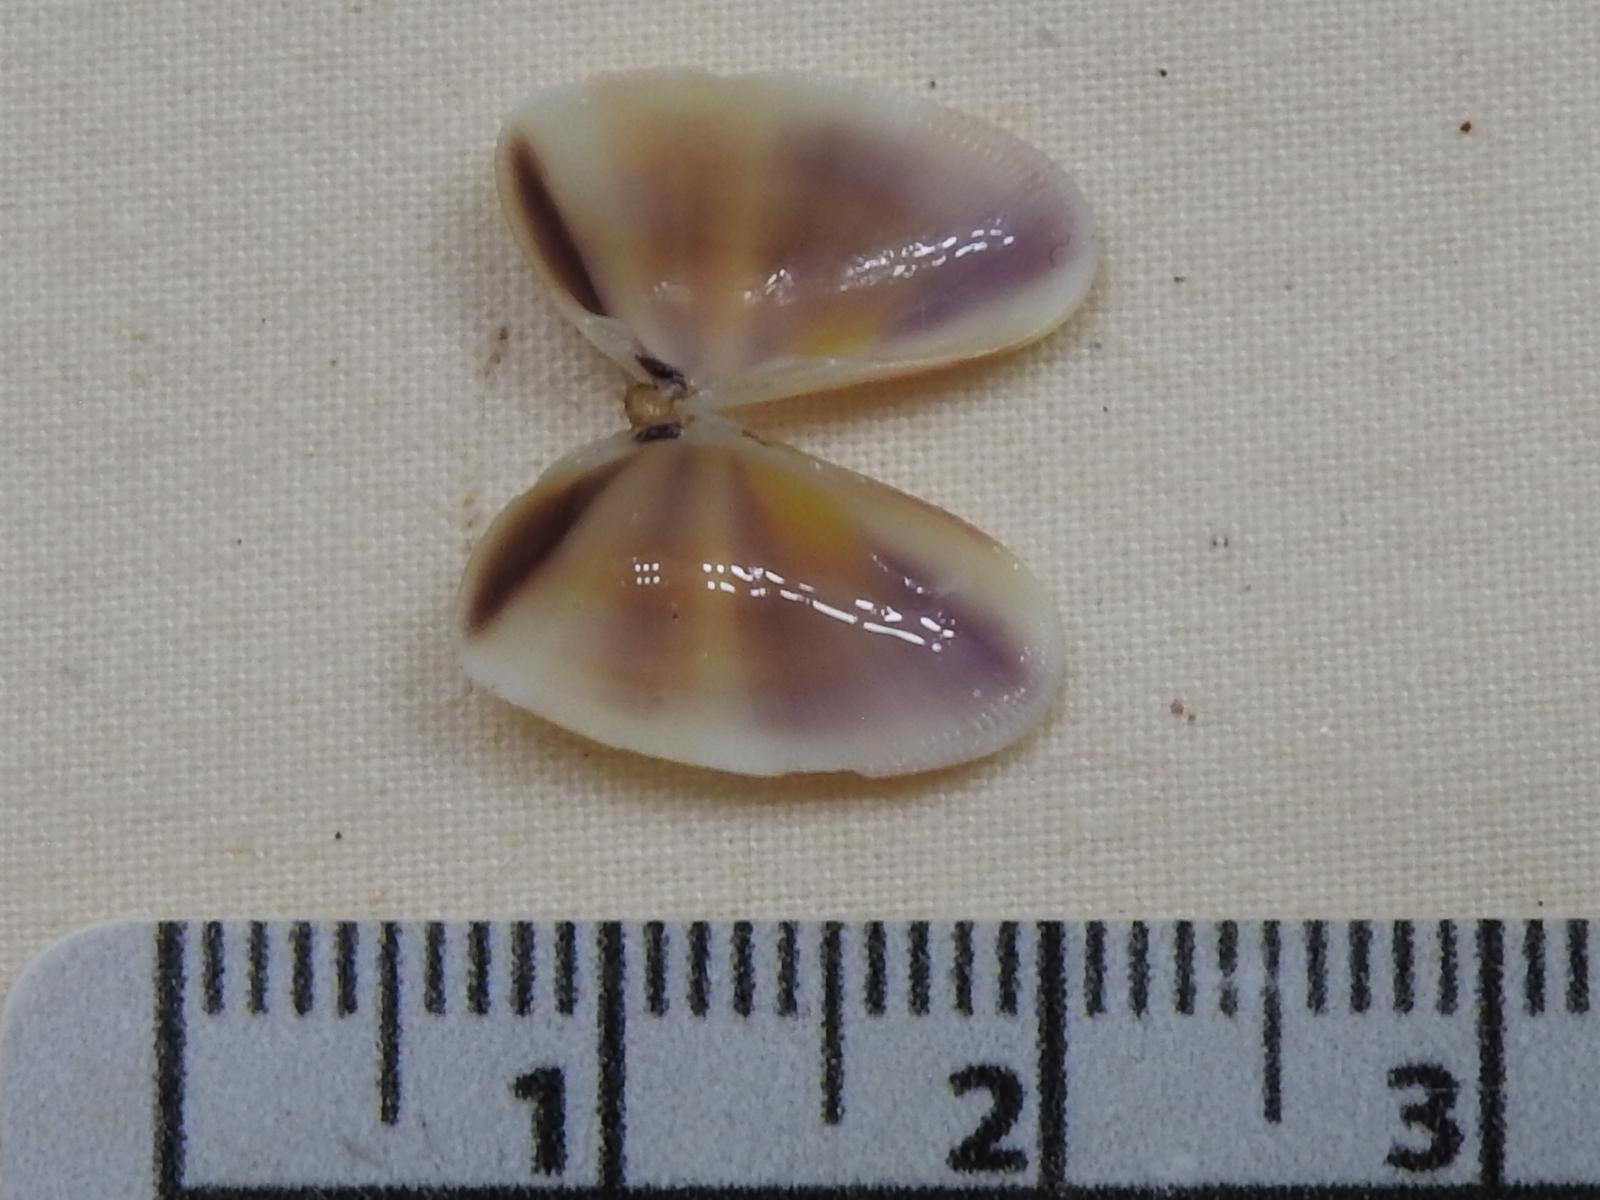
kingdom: Animalia
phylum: Mollusca
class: Bivalvia
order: Cardiida
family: Donacidae
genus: Donax
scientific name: Donax variabilis
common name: Butterfly shell
